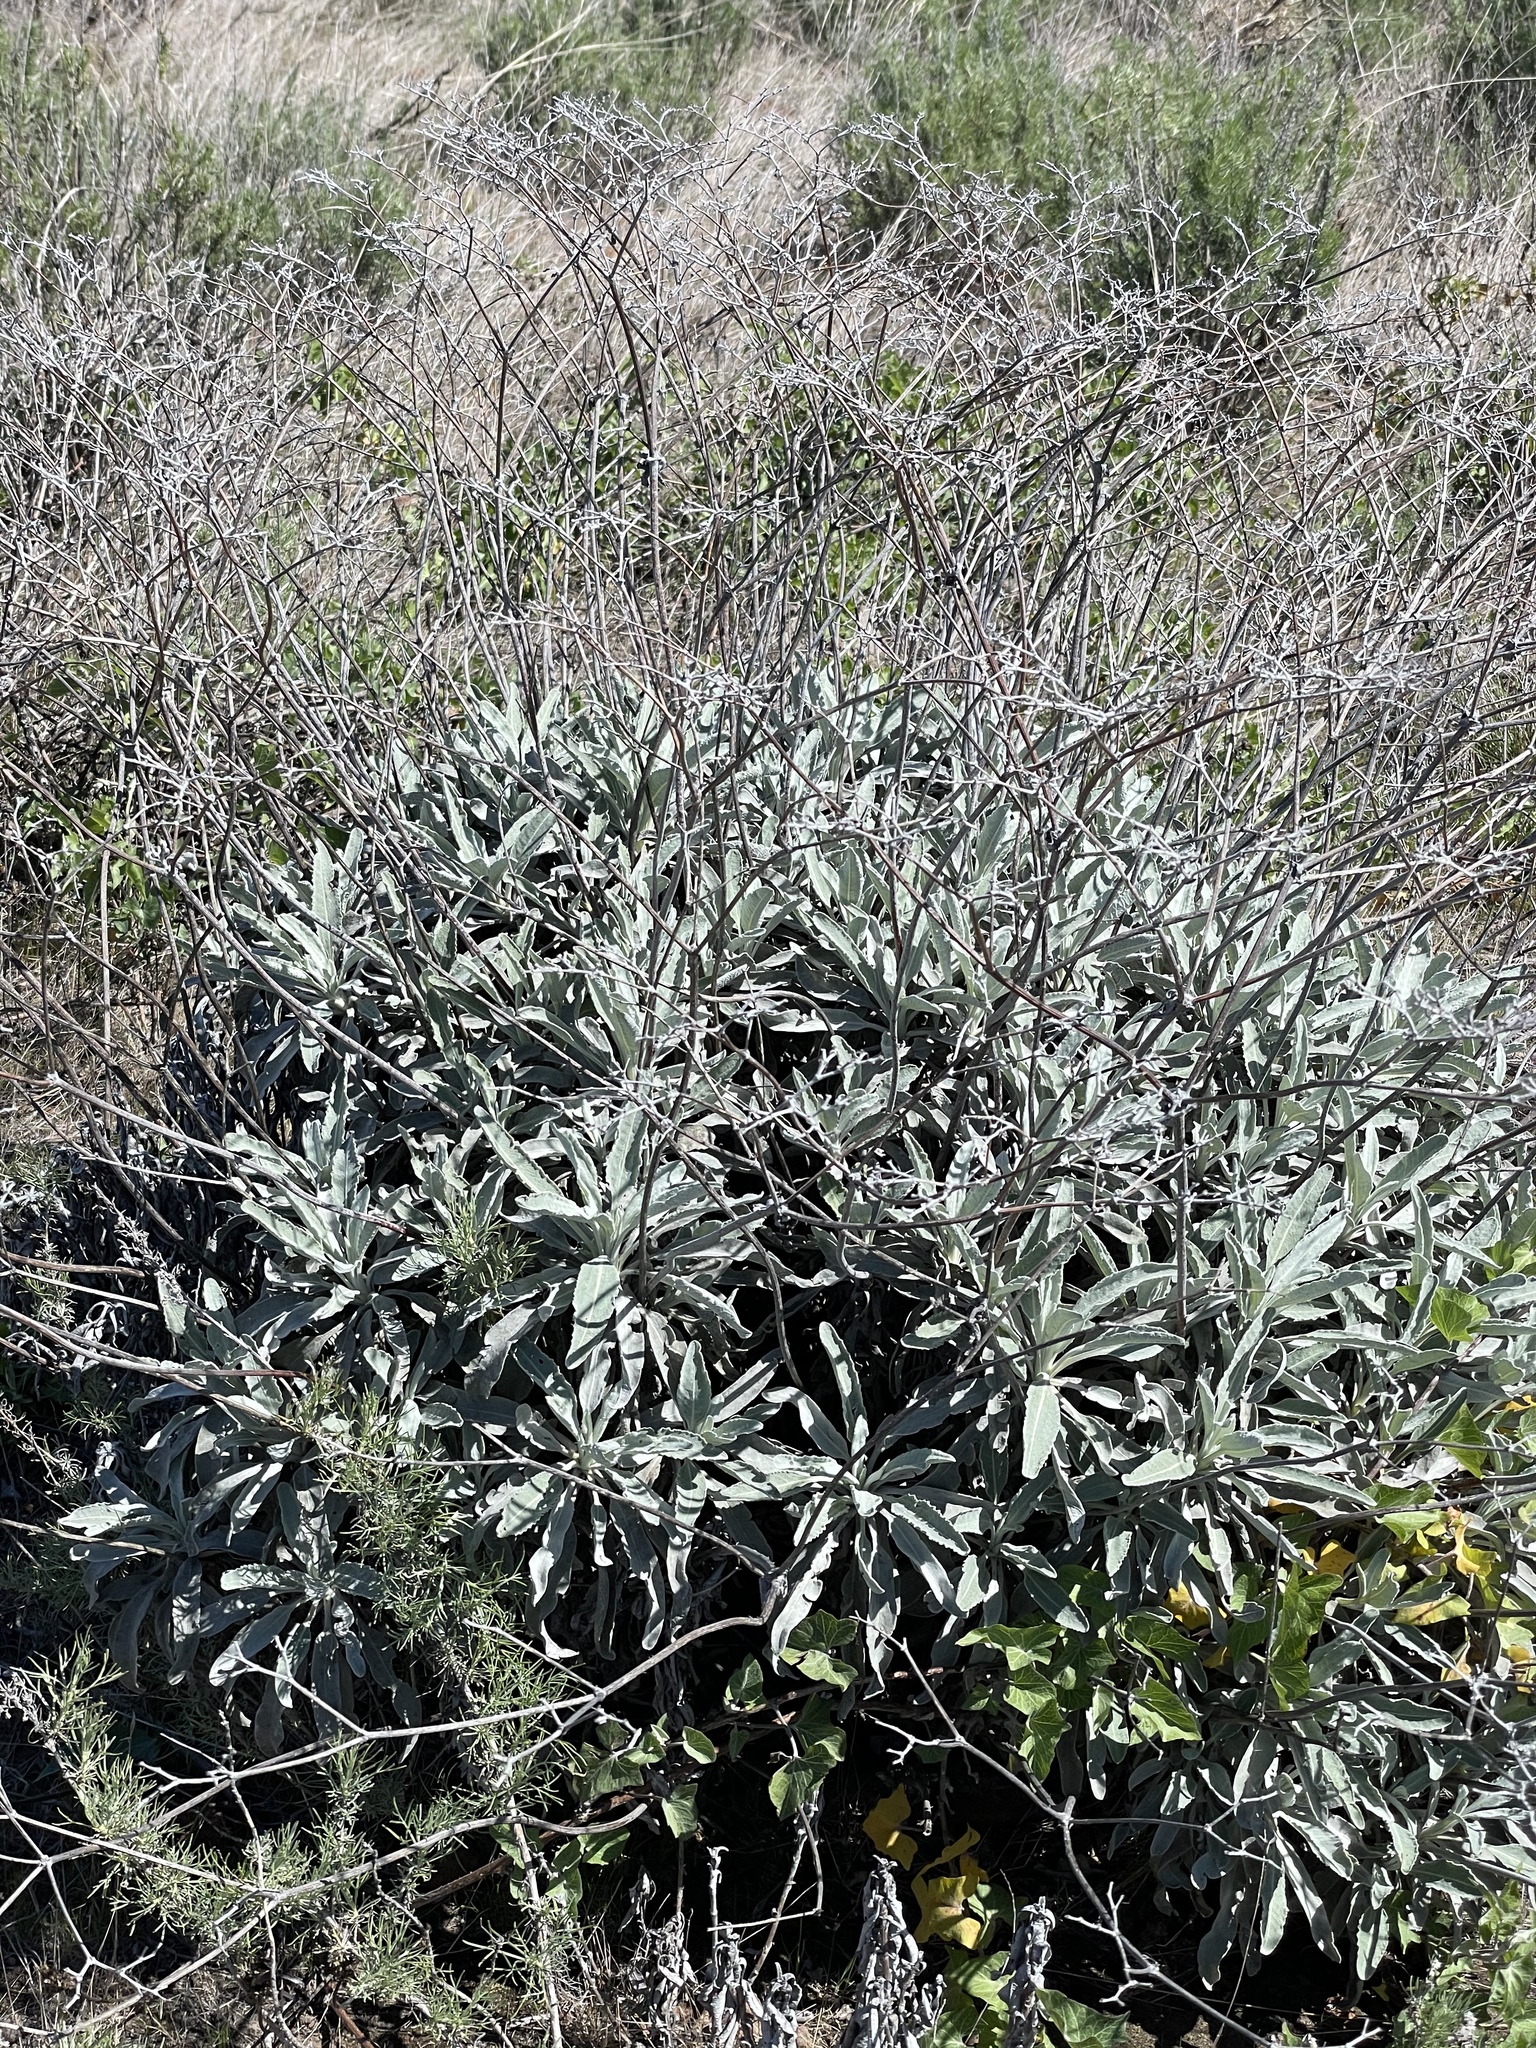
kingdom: Plantae
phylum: Tracheophyta
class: Magnoliopsida
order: Caryophyllales
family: Polygonaceae
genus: Eriogonum
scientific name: Eriogonum giganteum
